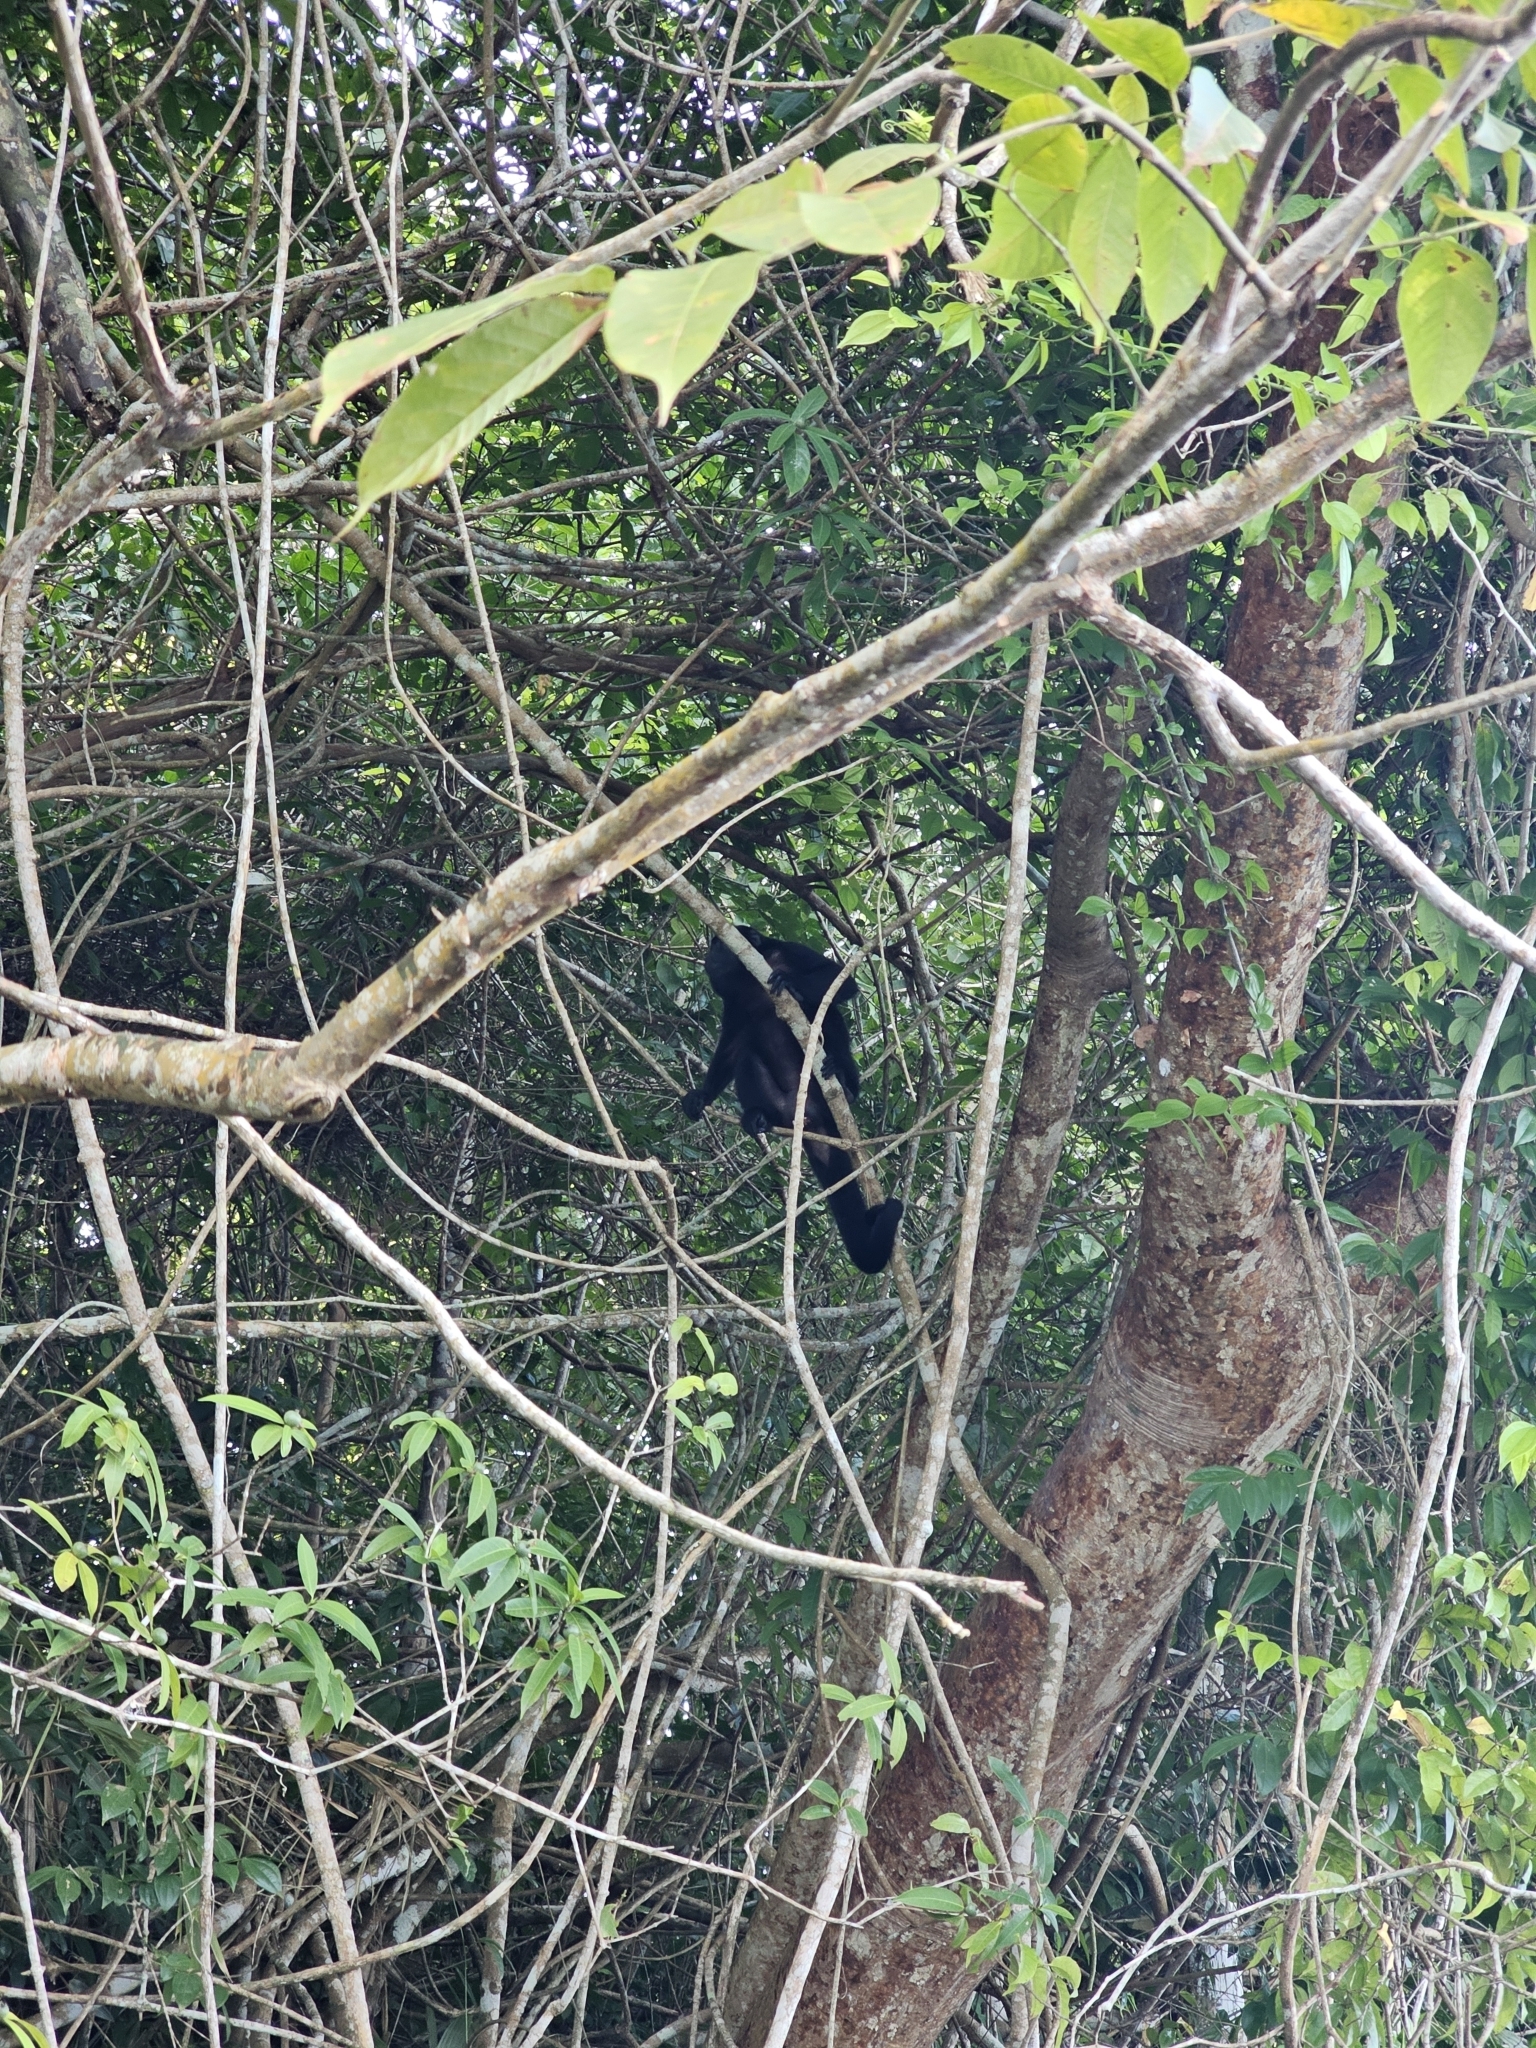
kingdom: Animalia
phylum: Chordata
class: Mammalia
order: Primates
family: Atelidae
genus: Alouatta
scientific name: Alouatta palliata
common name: Mantled howler
